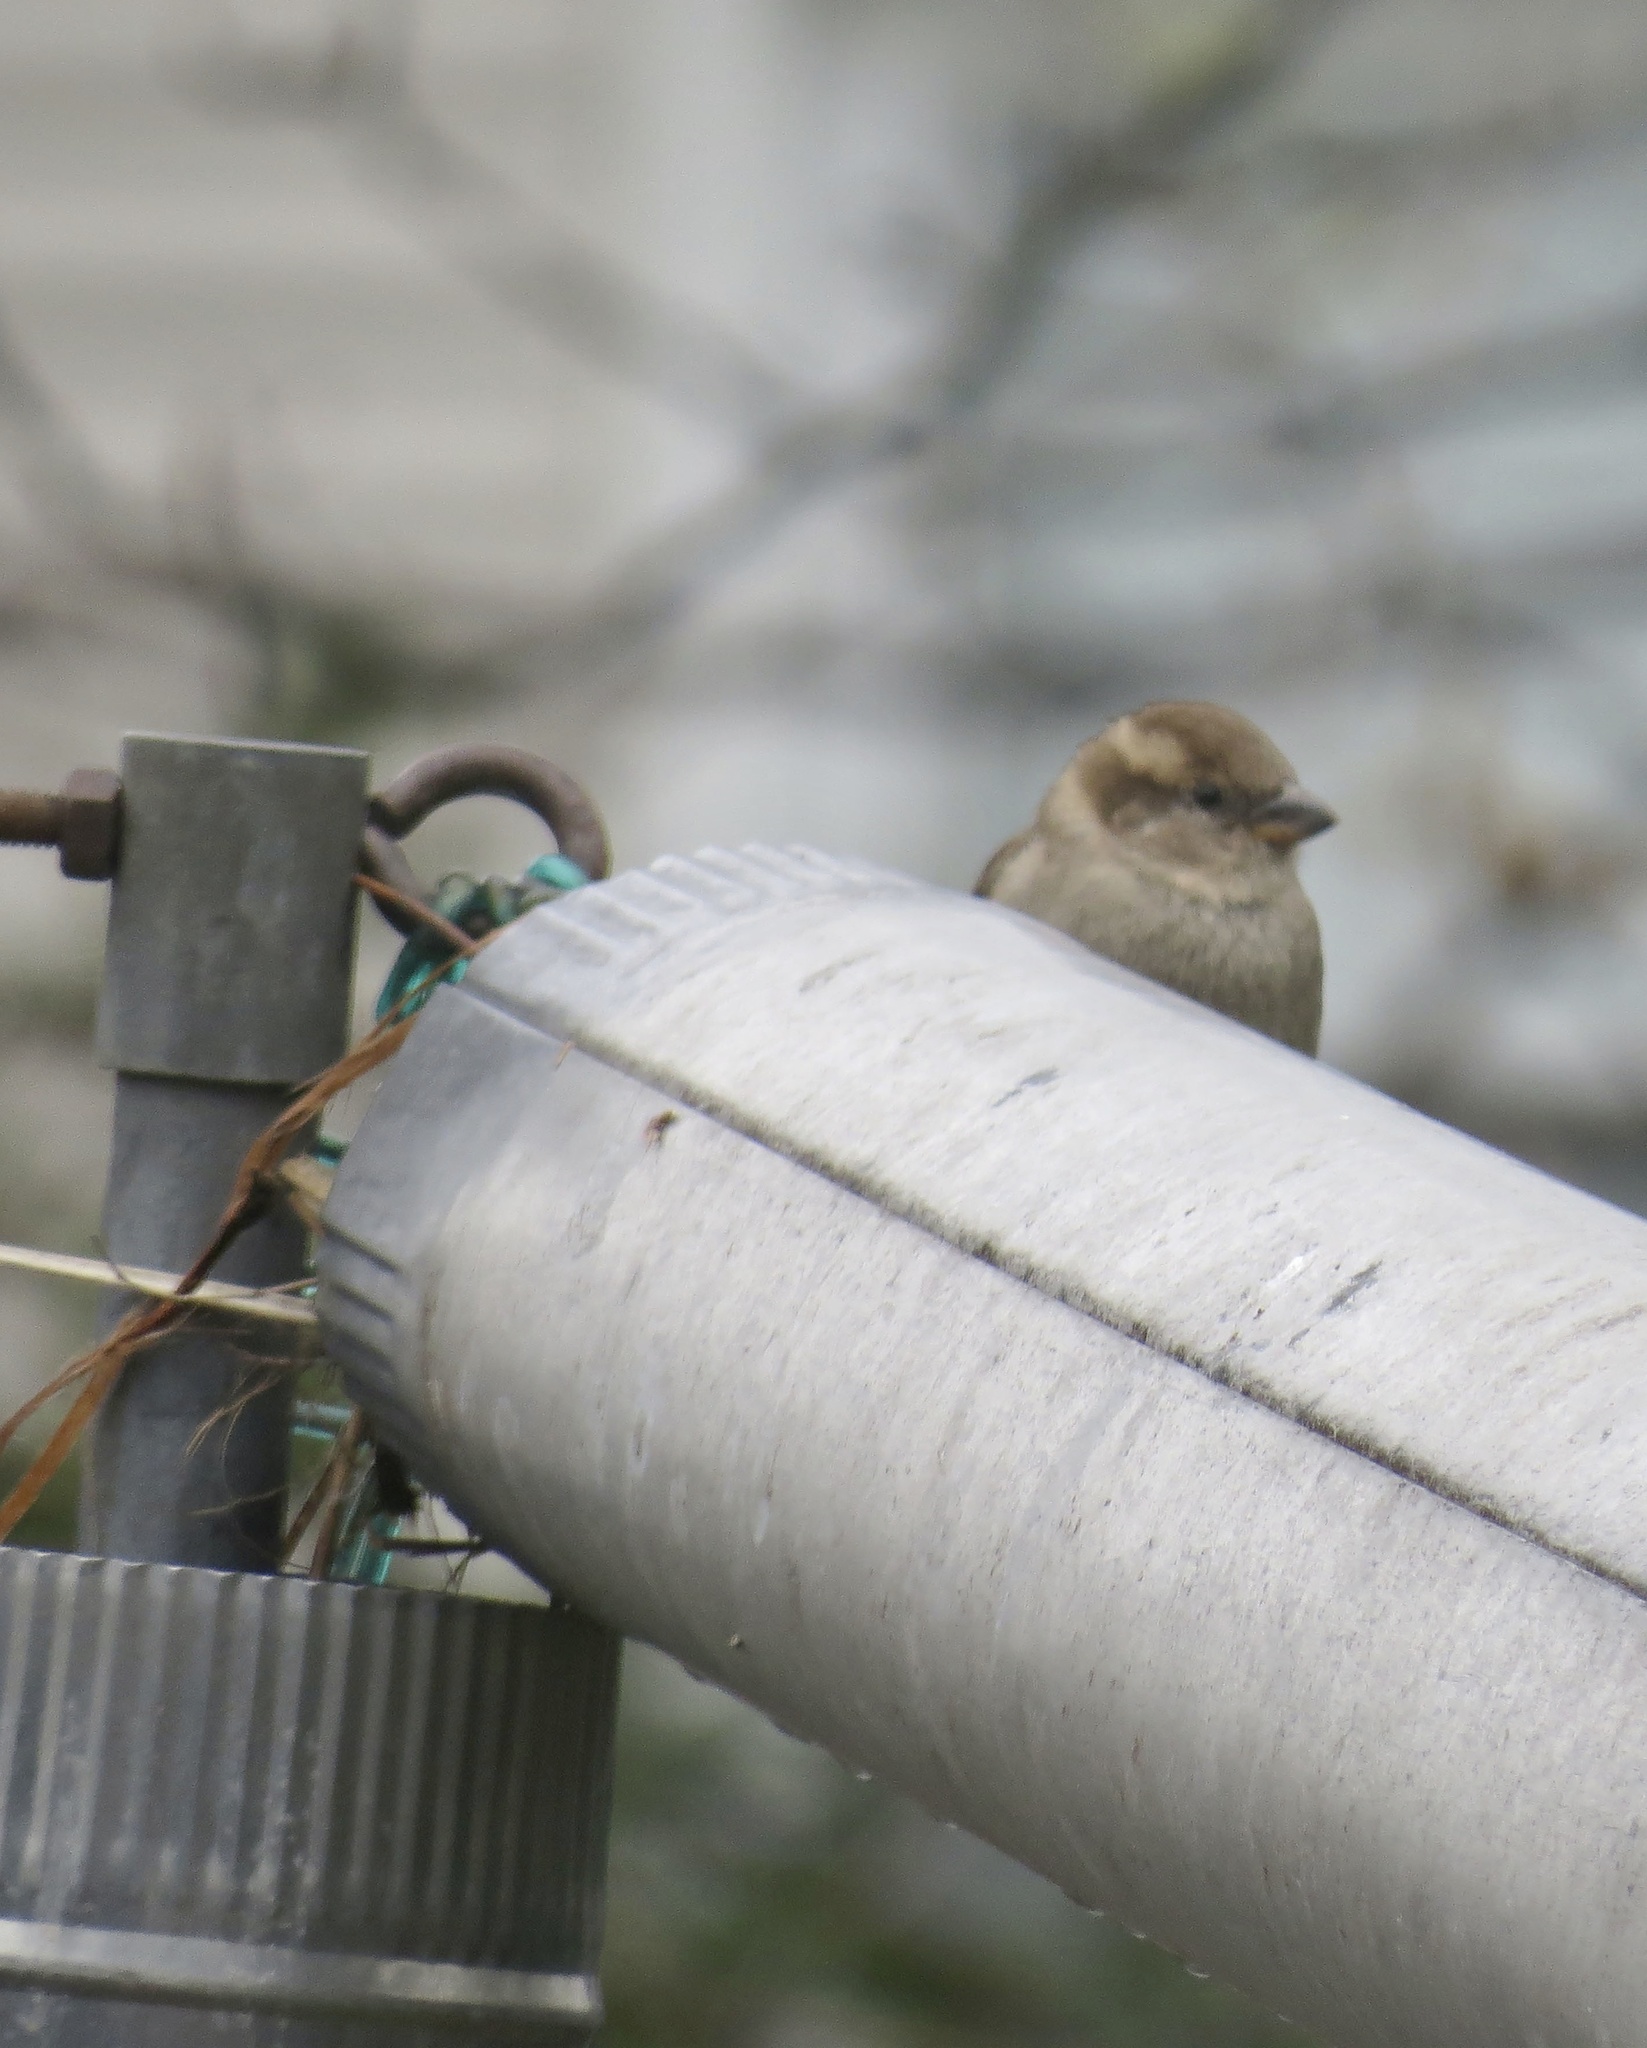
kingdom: Animalia
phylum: Chordata
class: Aves
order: Passeriformes
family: Passeridae
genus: Passer
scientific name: Passer domesticus
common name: House sparrow
